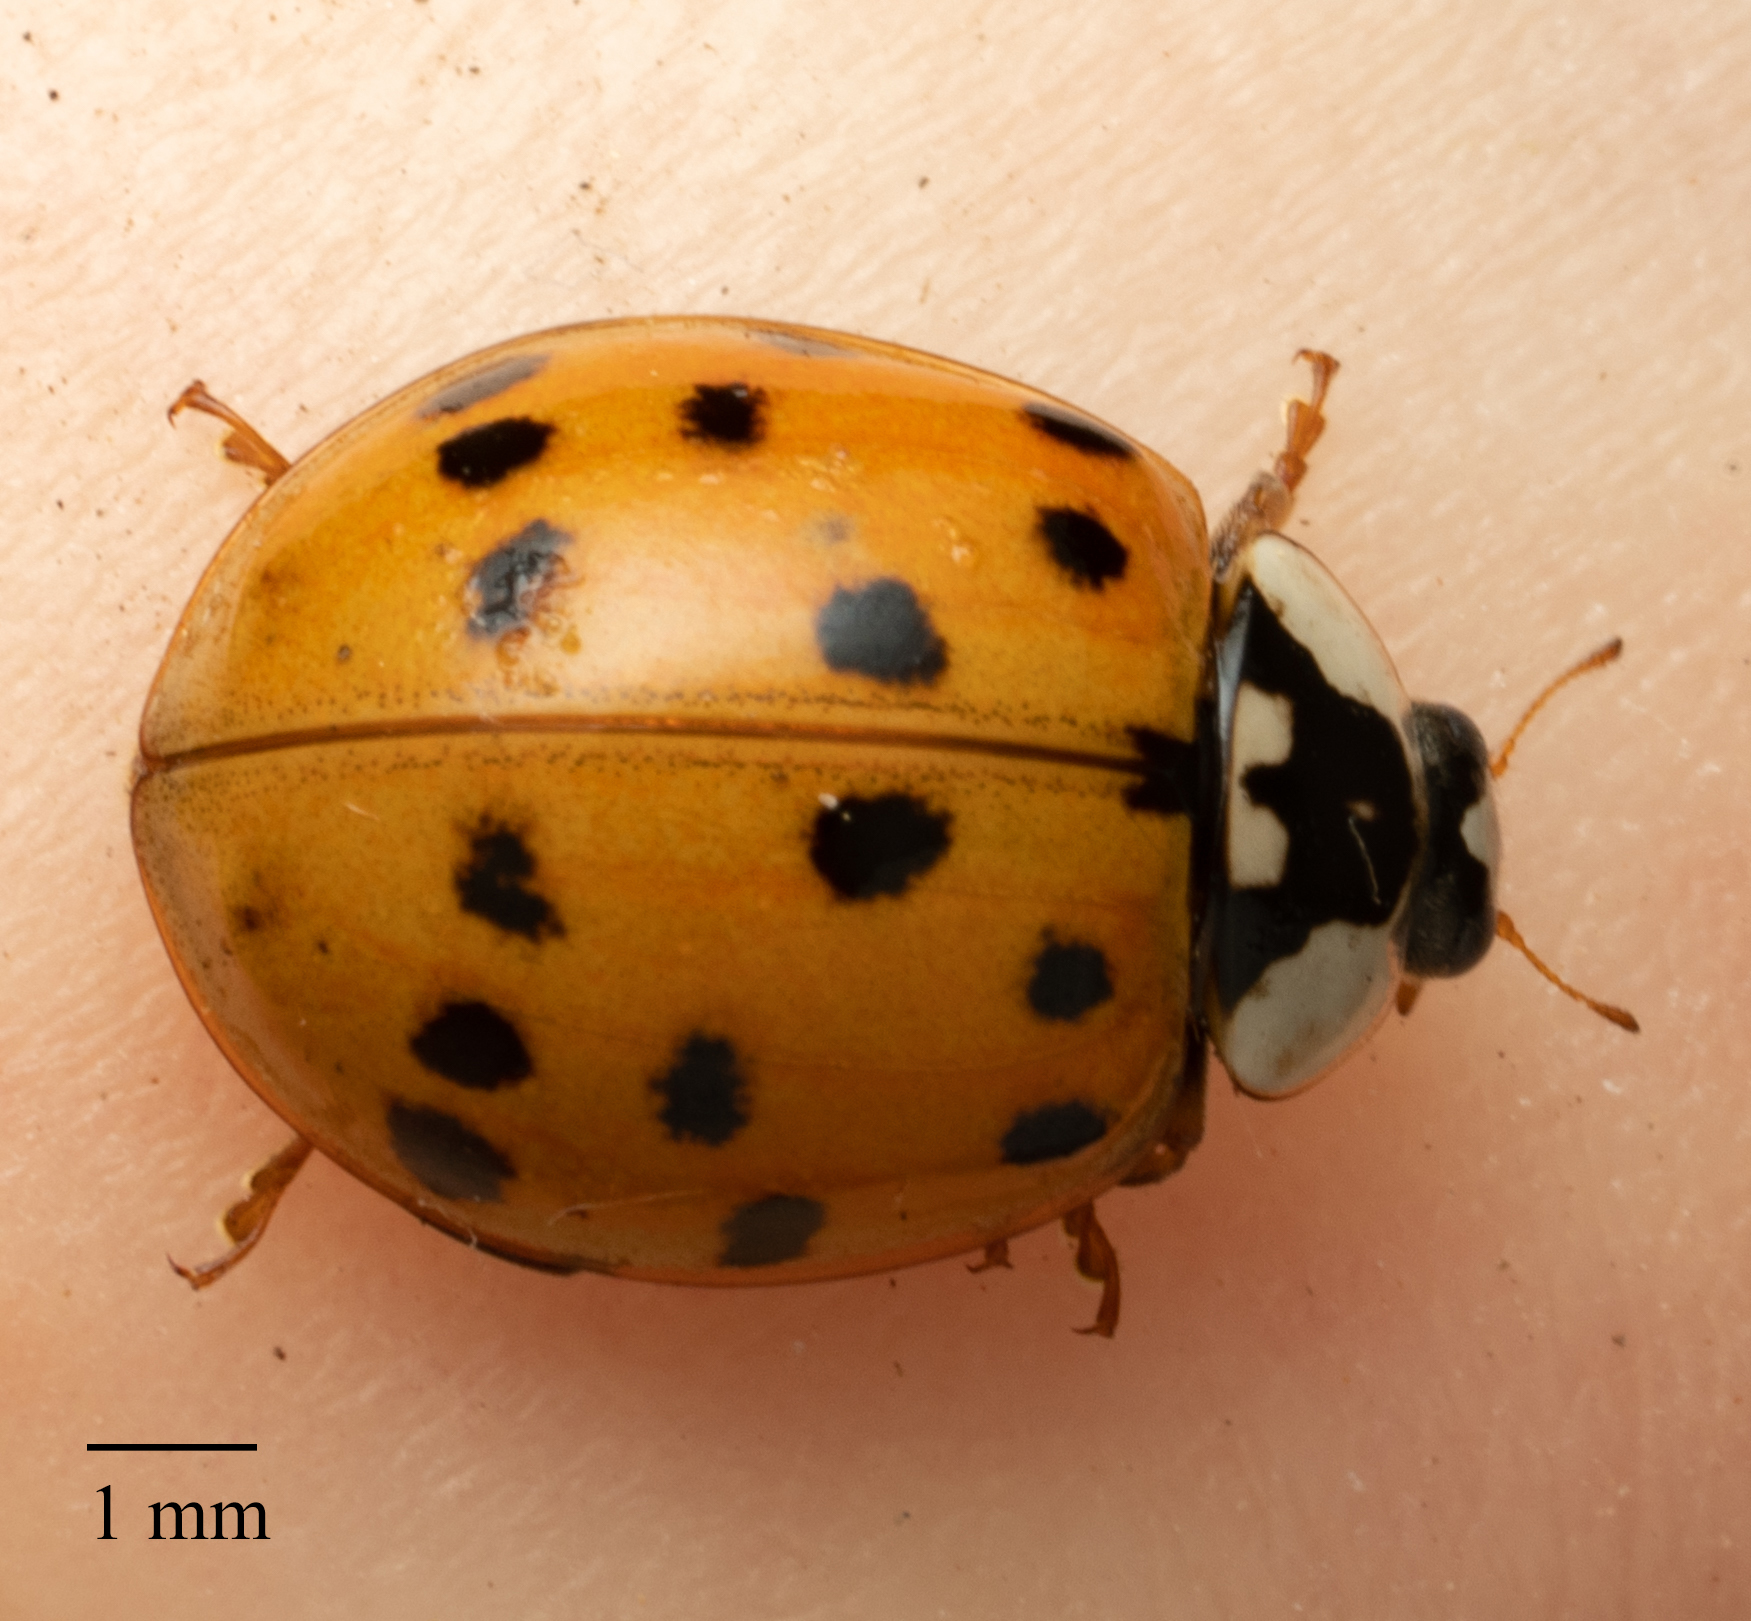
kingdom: Animalia
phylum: Arthropoda
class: Insecta
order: Coleoptera
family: Coccinellidae
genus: Harmonia
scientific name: Harmonia axyridis
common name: Harlequin ladybird
